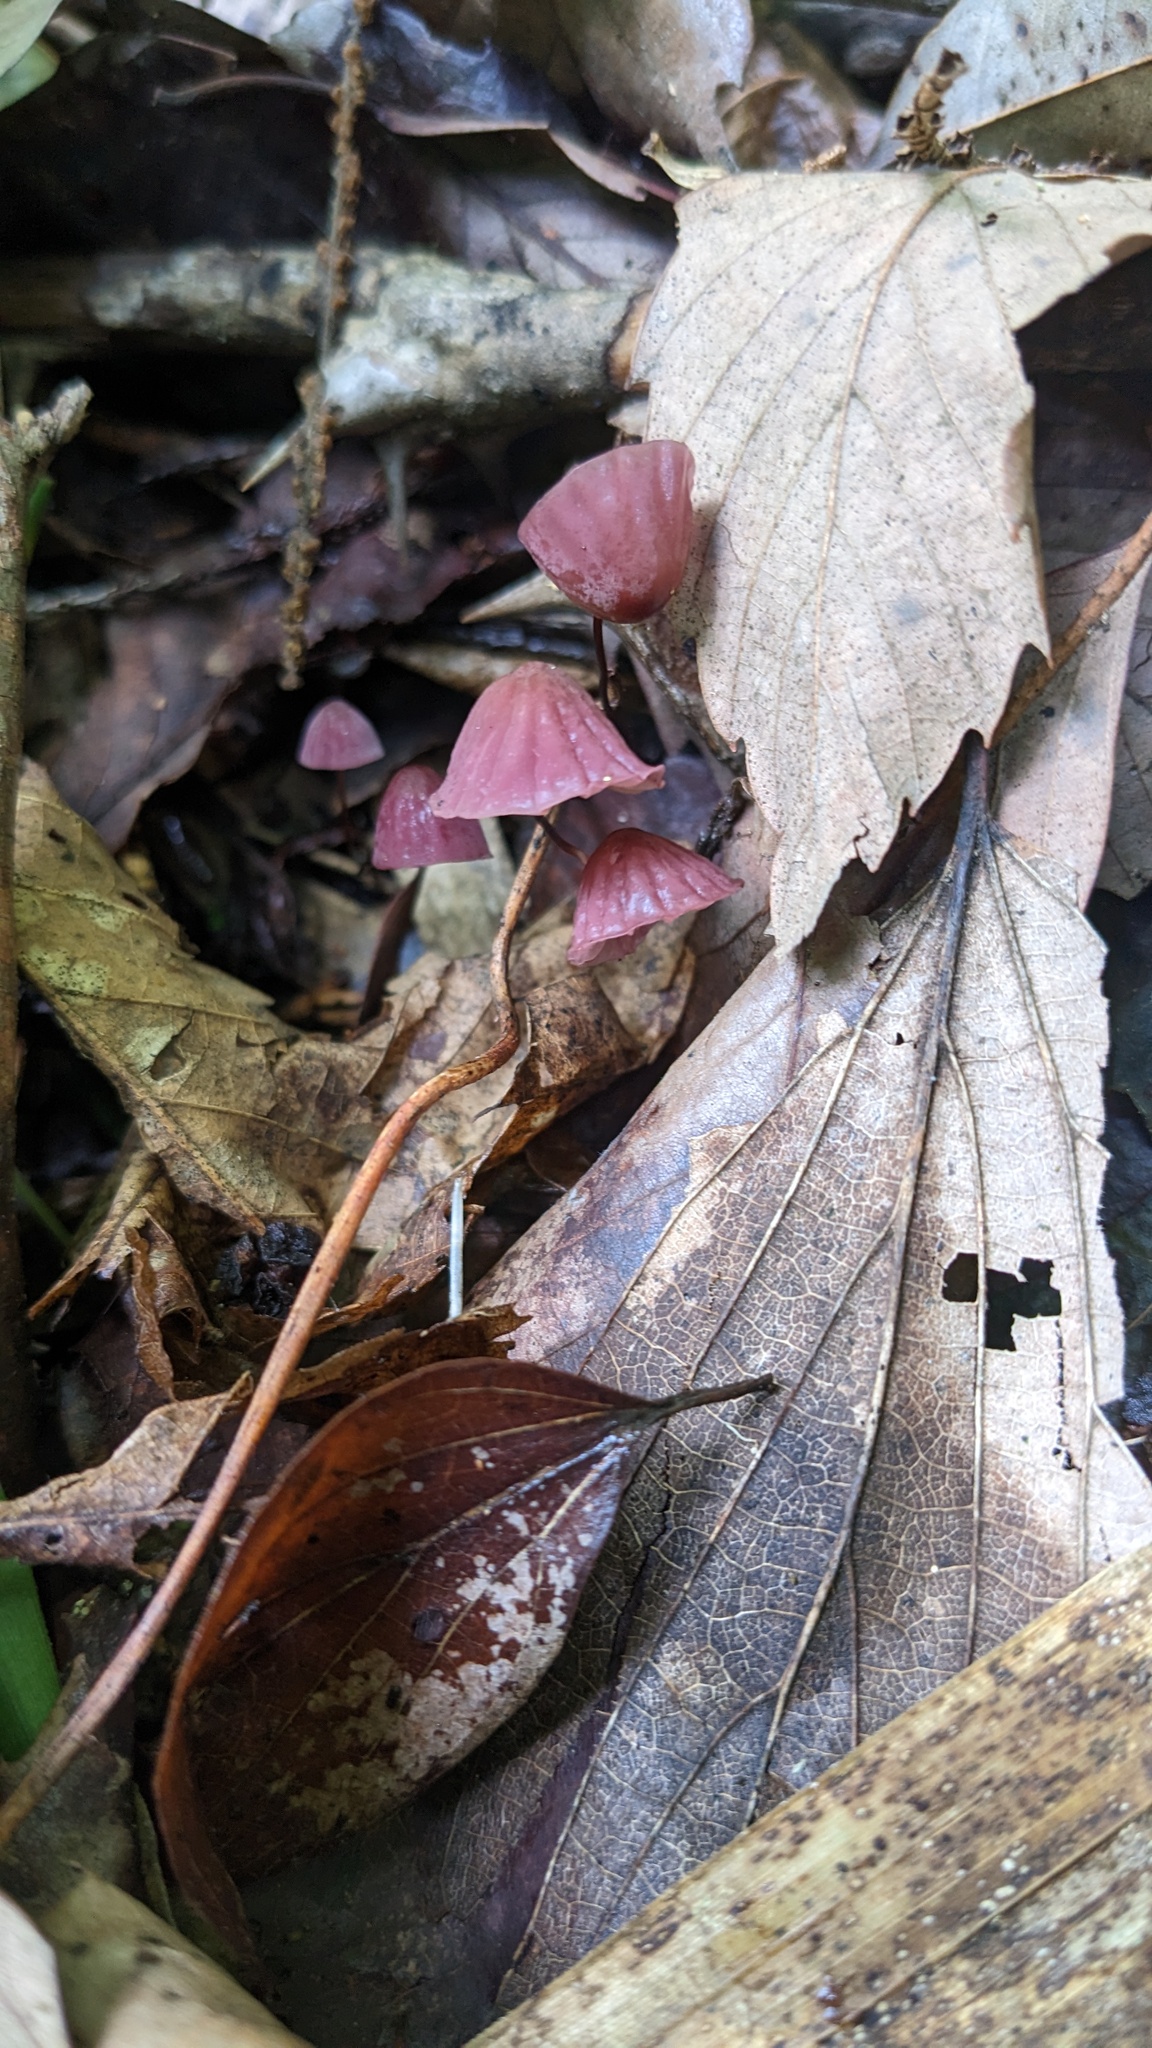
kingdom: Fungi
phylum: Basidiomycota
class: Agaricomycetes
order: Agaricales
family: Marasmiaceae
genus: Marasmius
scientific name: Marasmius pulcherripes
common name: Rosy parachute
